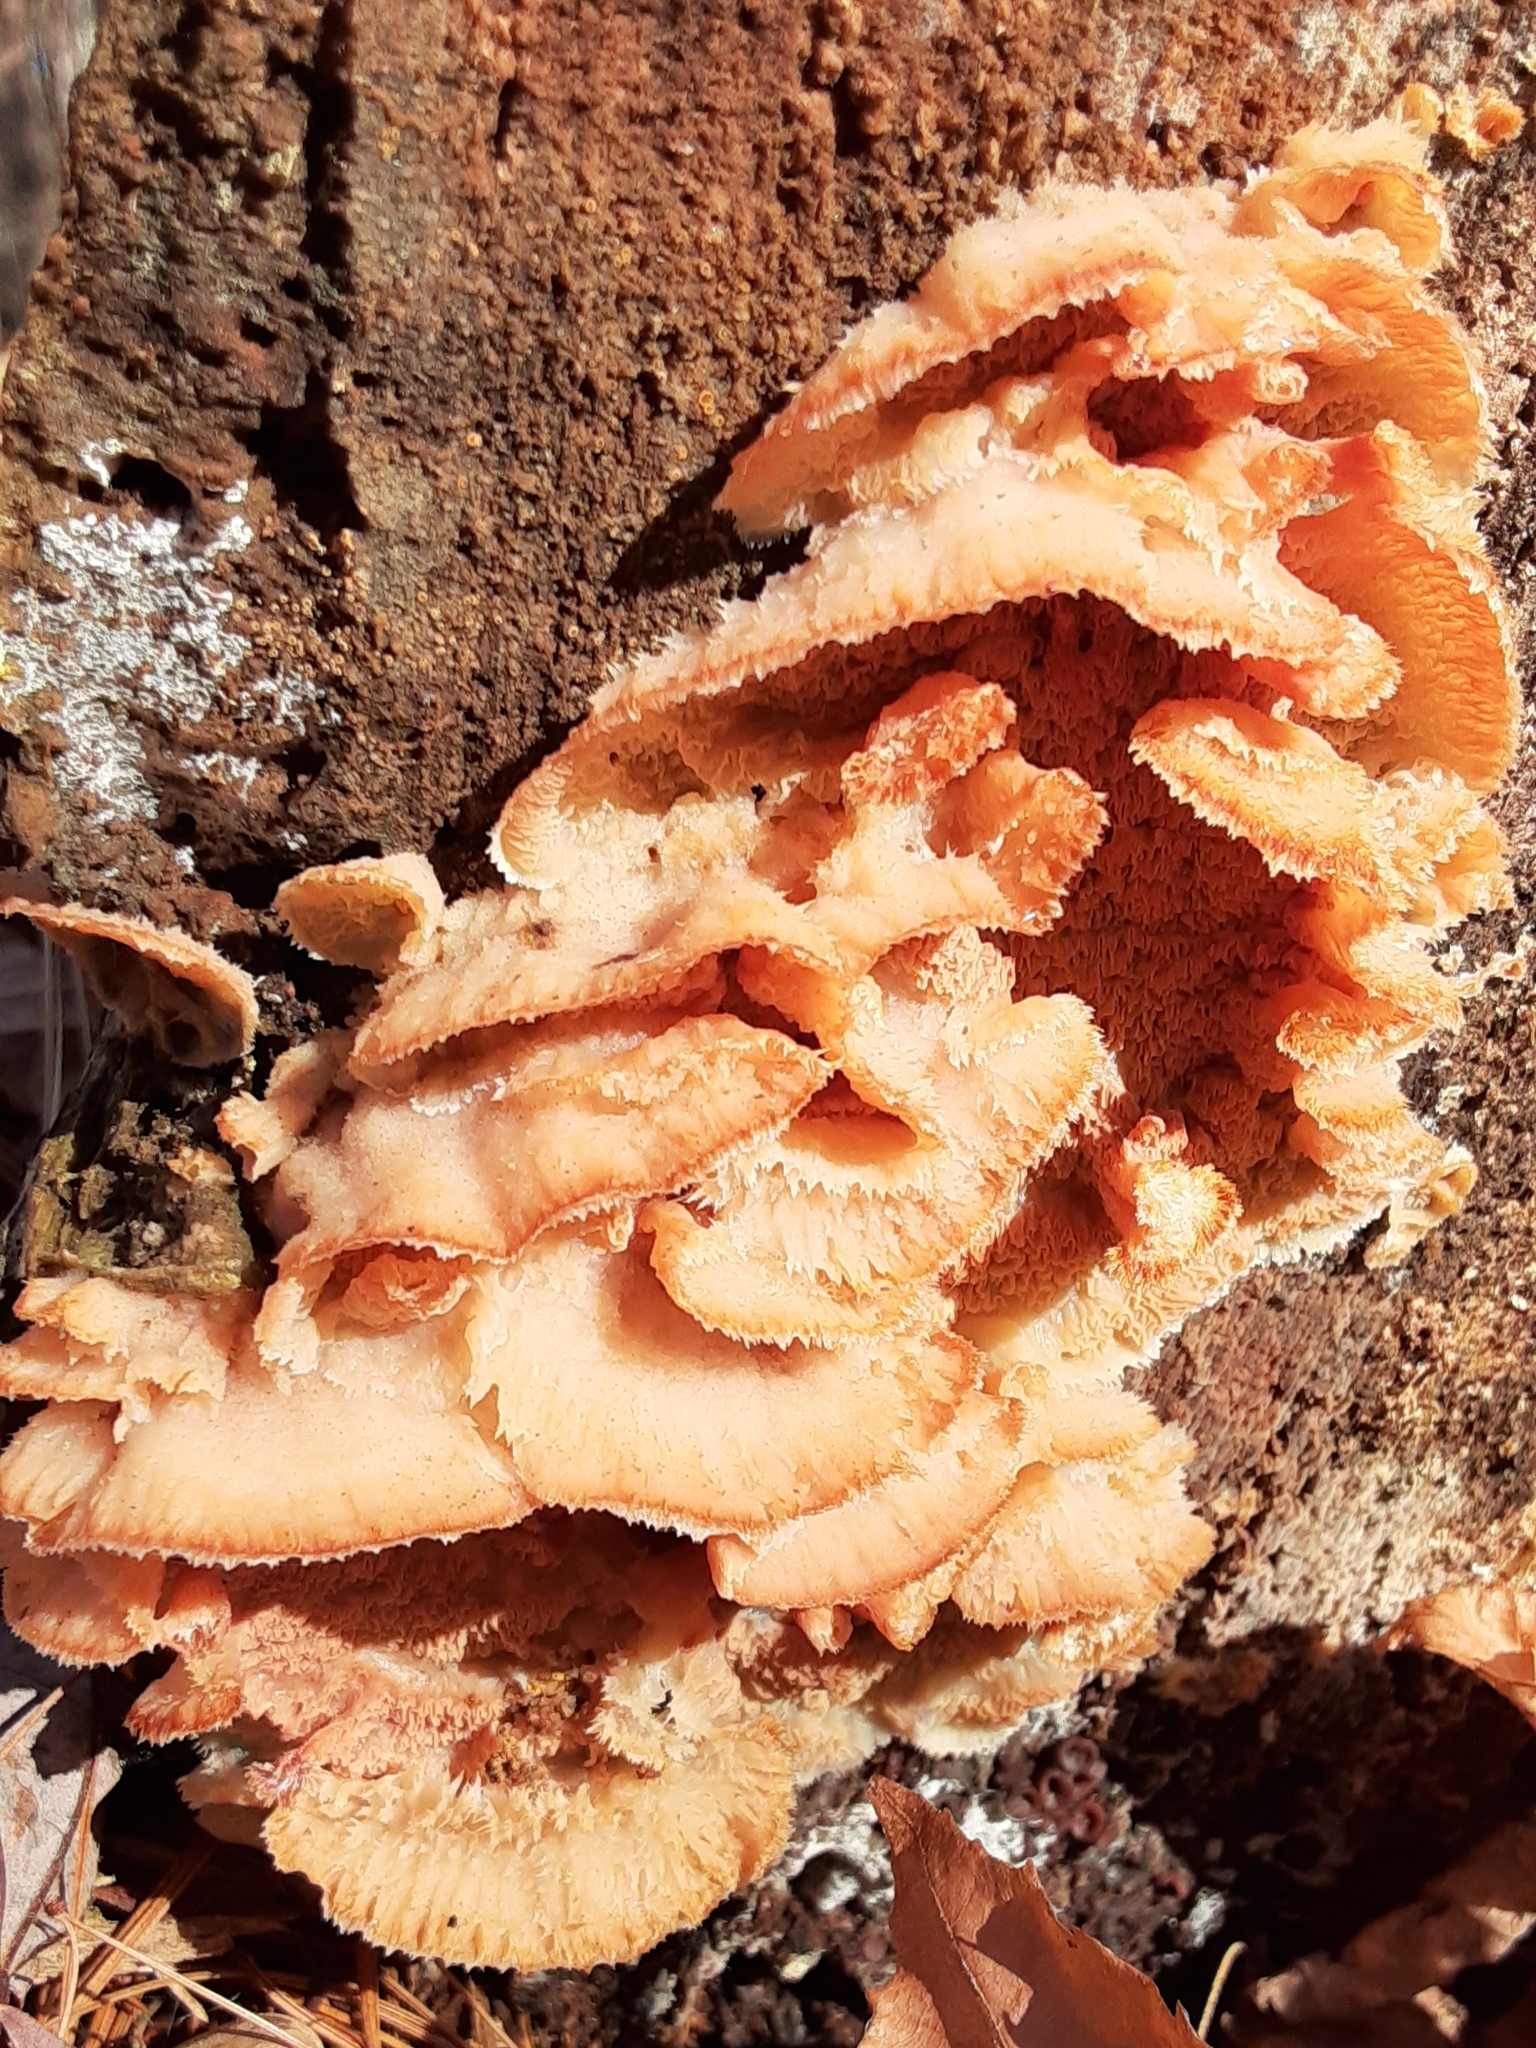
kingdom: Fungi
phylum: Basidiomycota
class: Agaricomycetes
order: Polyporales
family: Meruliaceae
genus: Phlebia
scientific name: Phlebia tremellosa
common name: Jelly rot
